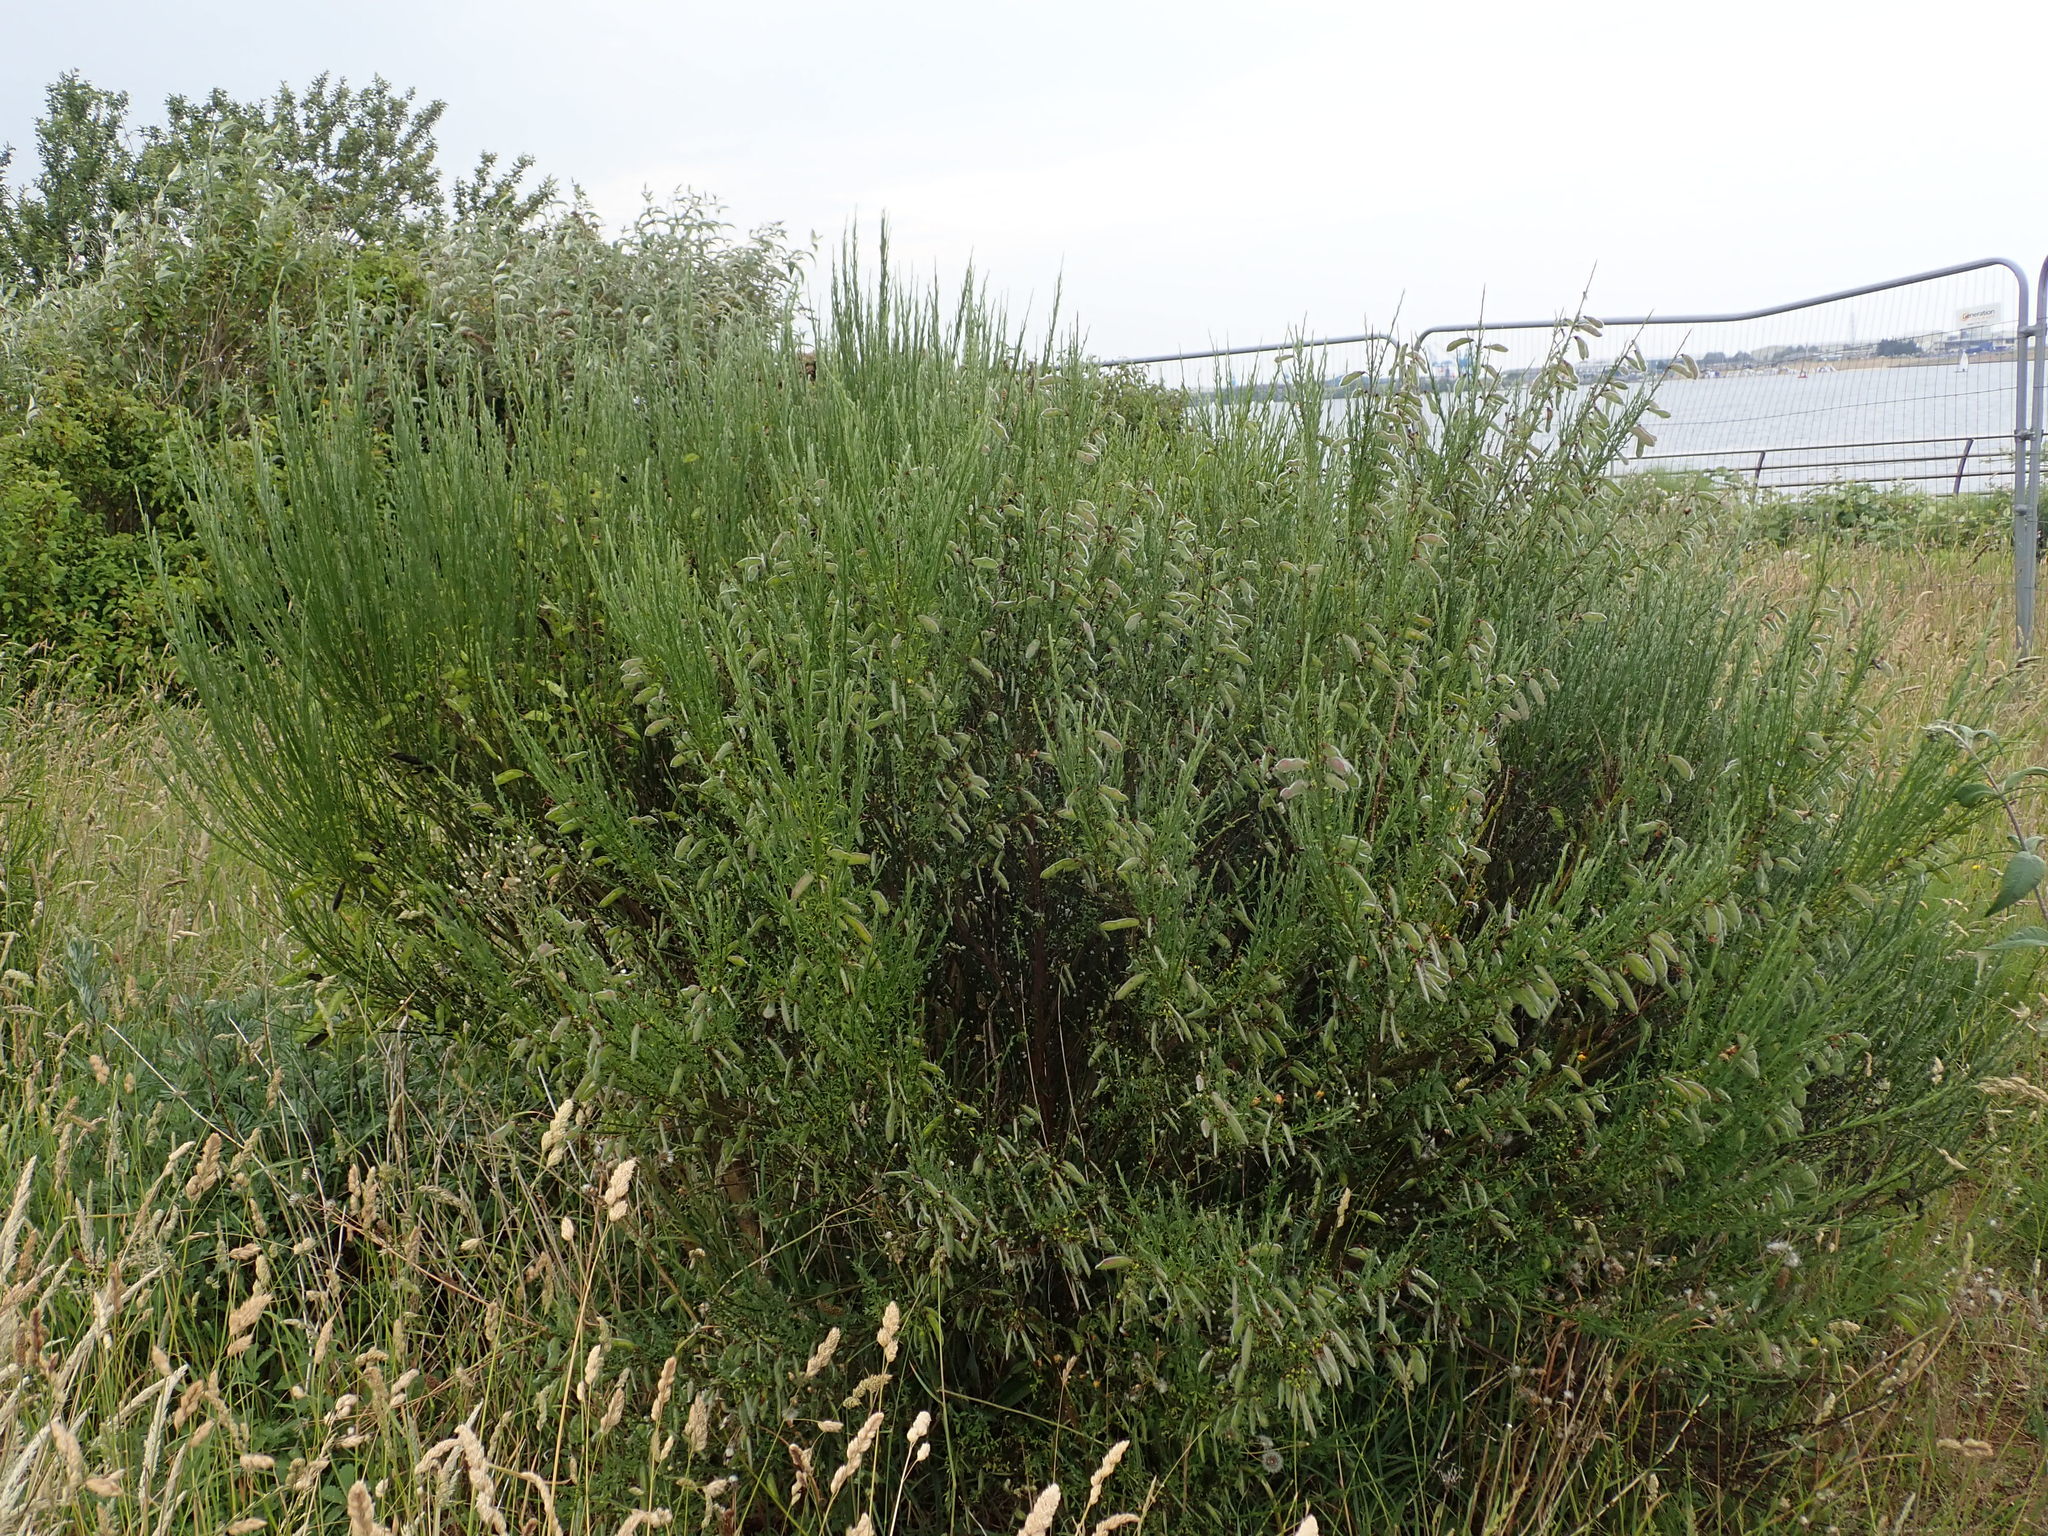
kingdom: Plantae
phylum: Tracheophyta
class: Magnoliopsida
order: Fabales
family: Fabaceae
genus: Cytisus
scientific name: Cytisus scoparius
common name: Scotch broom
